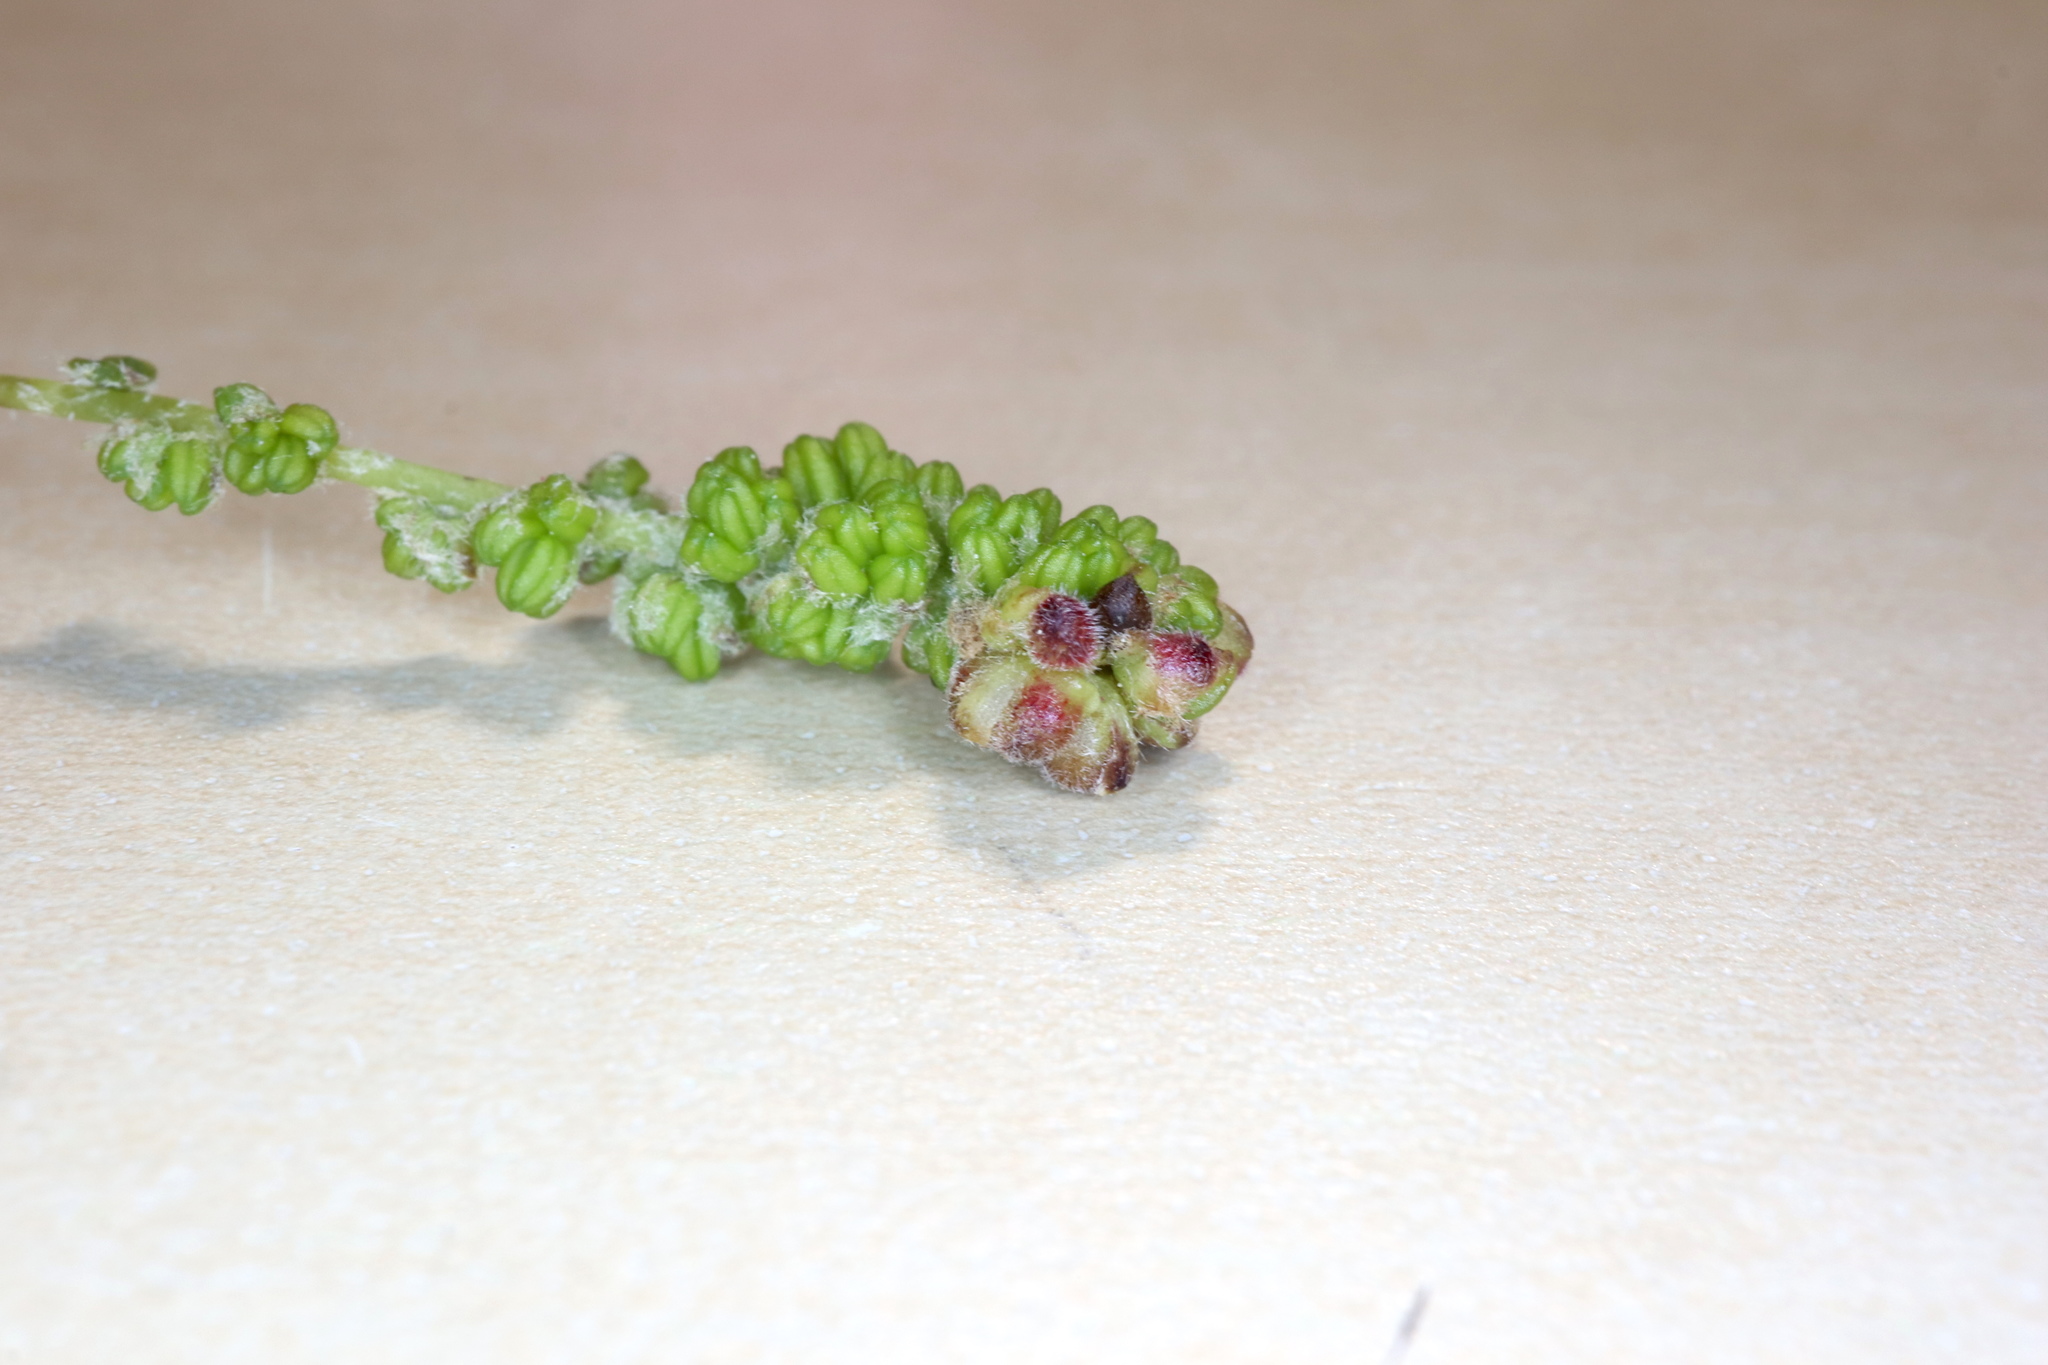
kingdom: Animalia
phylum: Arthropoda
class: Insecta
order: Hymenoptera
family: Cynipidae
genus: Callirhytis
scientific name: Callirhytis
